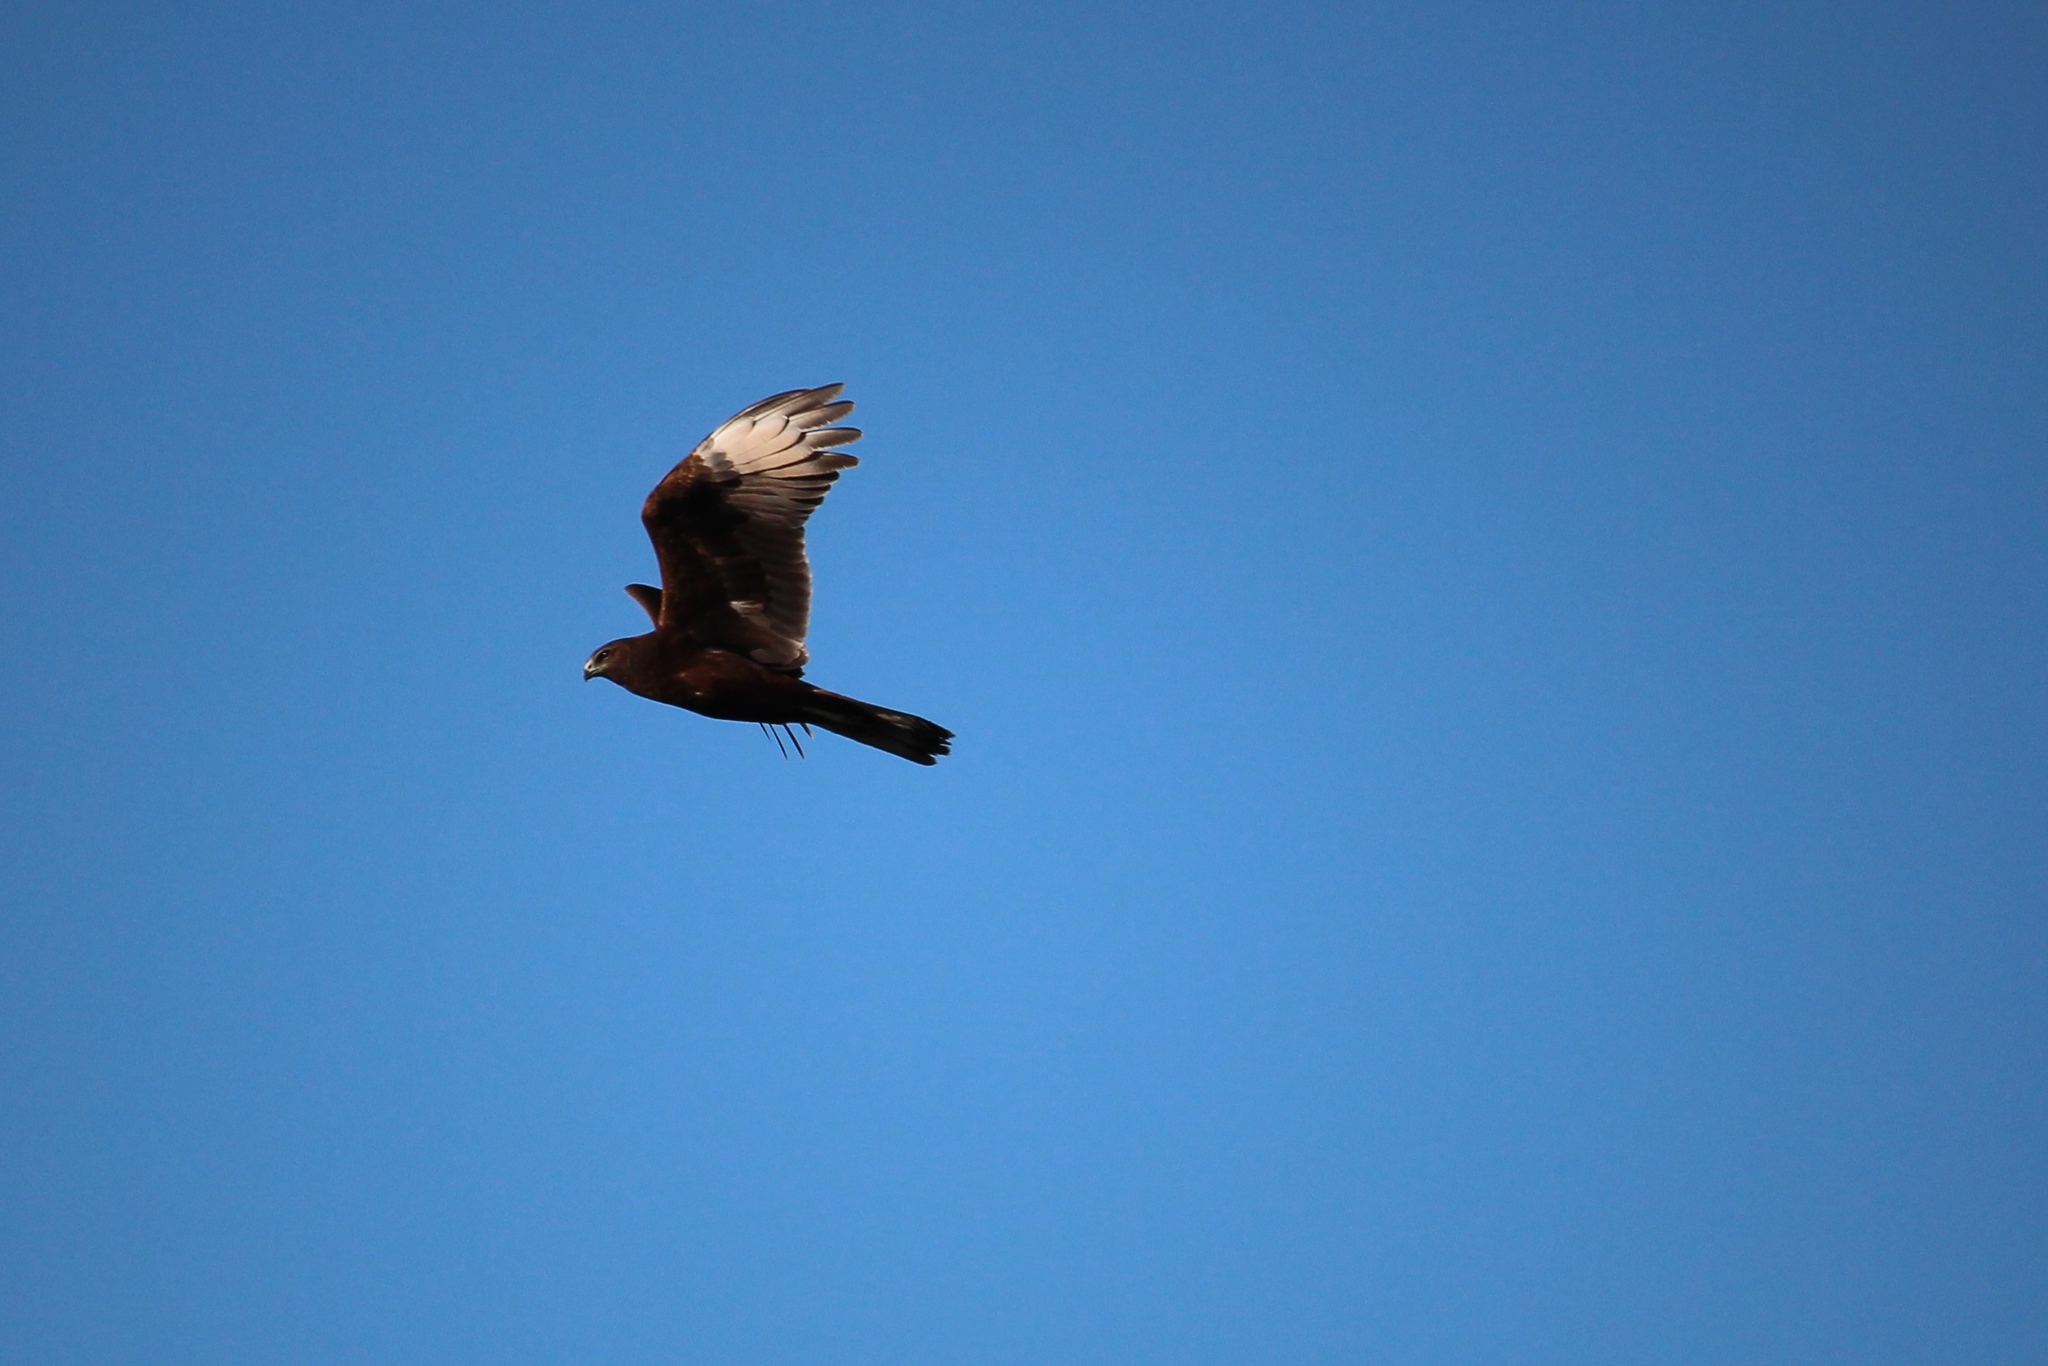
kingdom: Animalia
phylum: Chordata
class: Aves
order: Accipitriformes
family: Accipitridae
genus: Circus
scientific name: Circus approximans
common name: Swamp harrier
